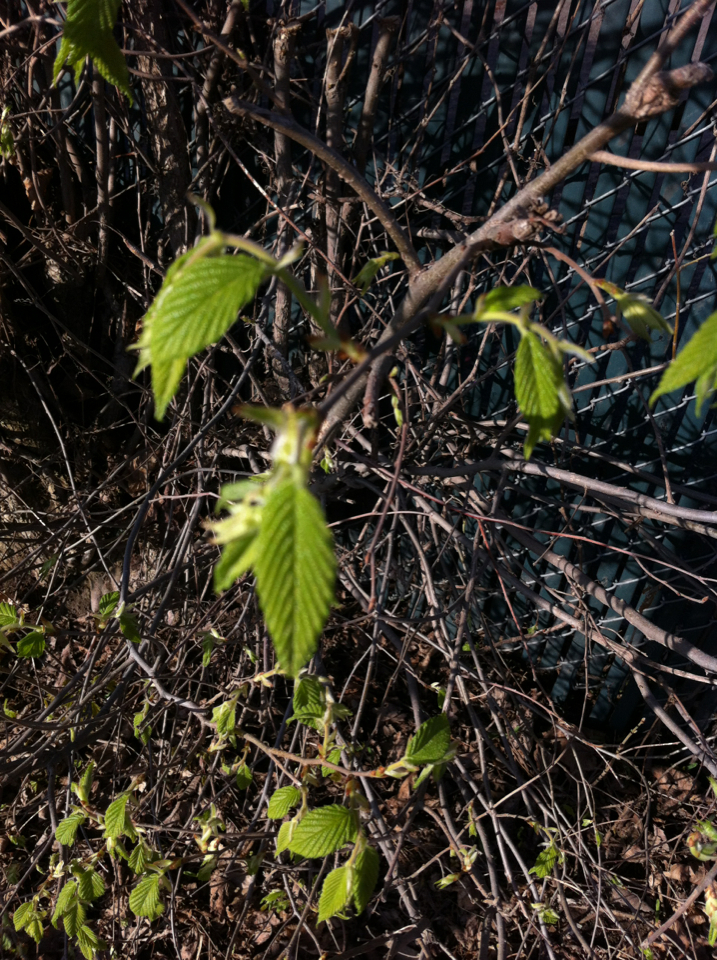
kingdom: Plantae
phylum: Tracheophyta
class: Magnoliopsida
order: Rosales
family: Ulmaceae
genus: Ulmus
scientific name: Ulmus americana
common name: American elm
